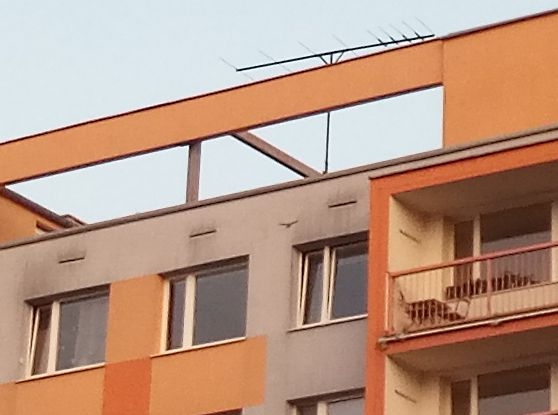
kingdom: Animalia
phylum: Chordata
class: Aves
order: Apodiformes
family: Apodidae
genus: Apus
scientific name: Apus apus
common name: Common swift
